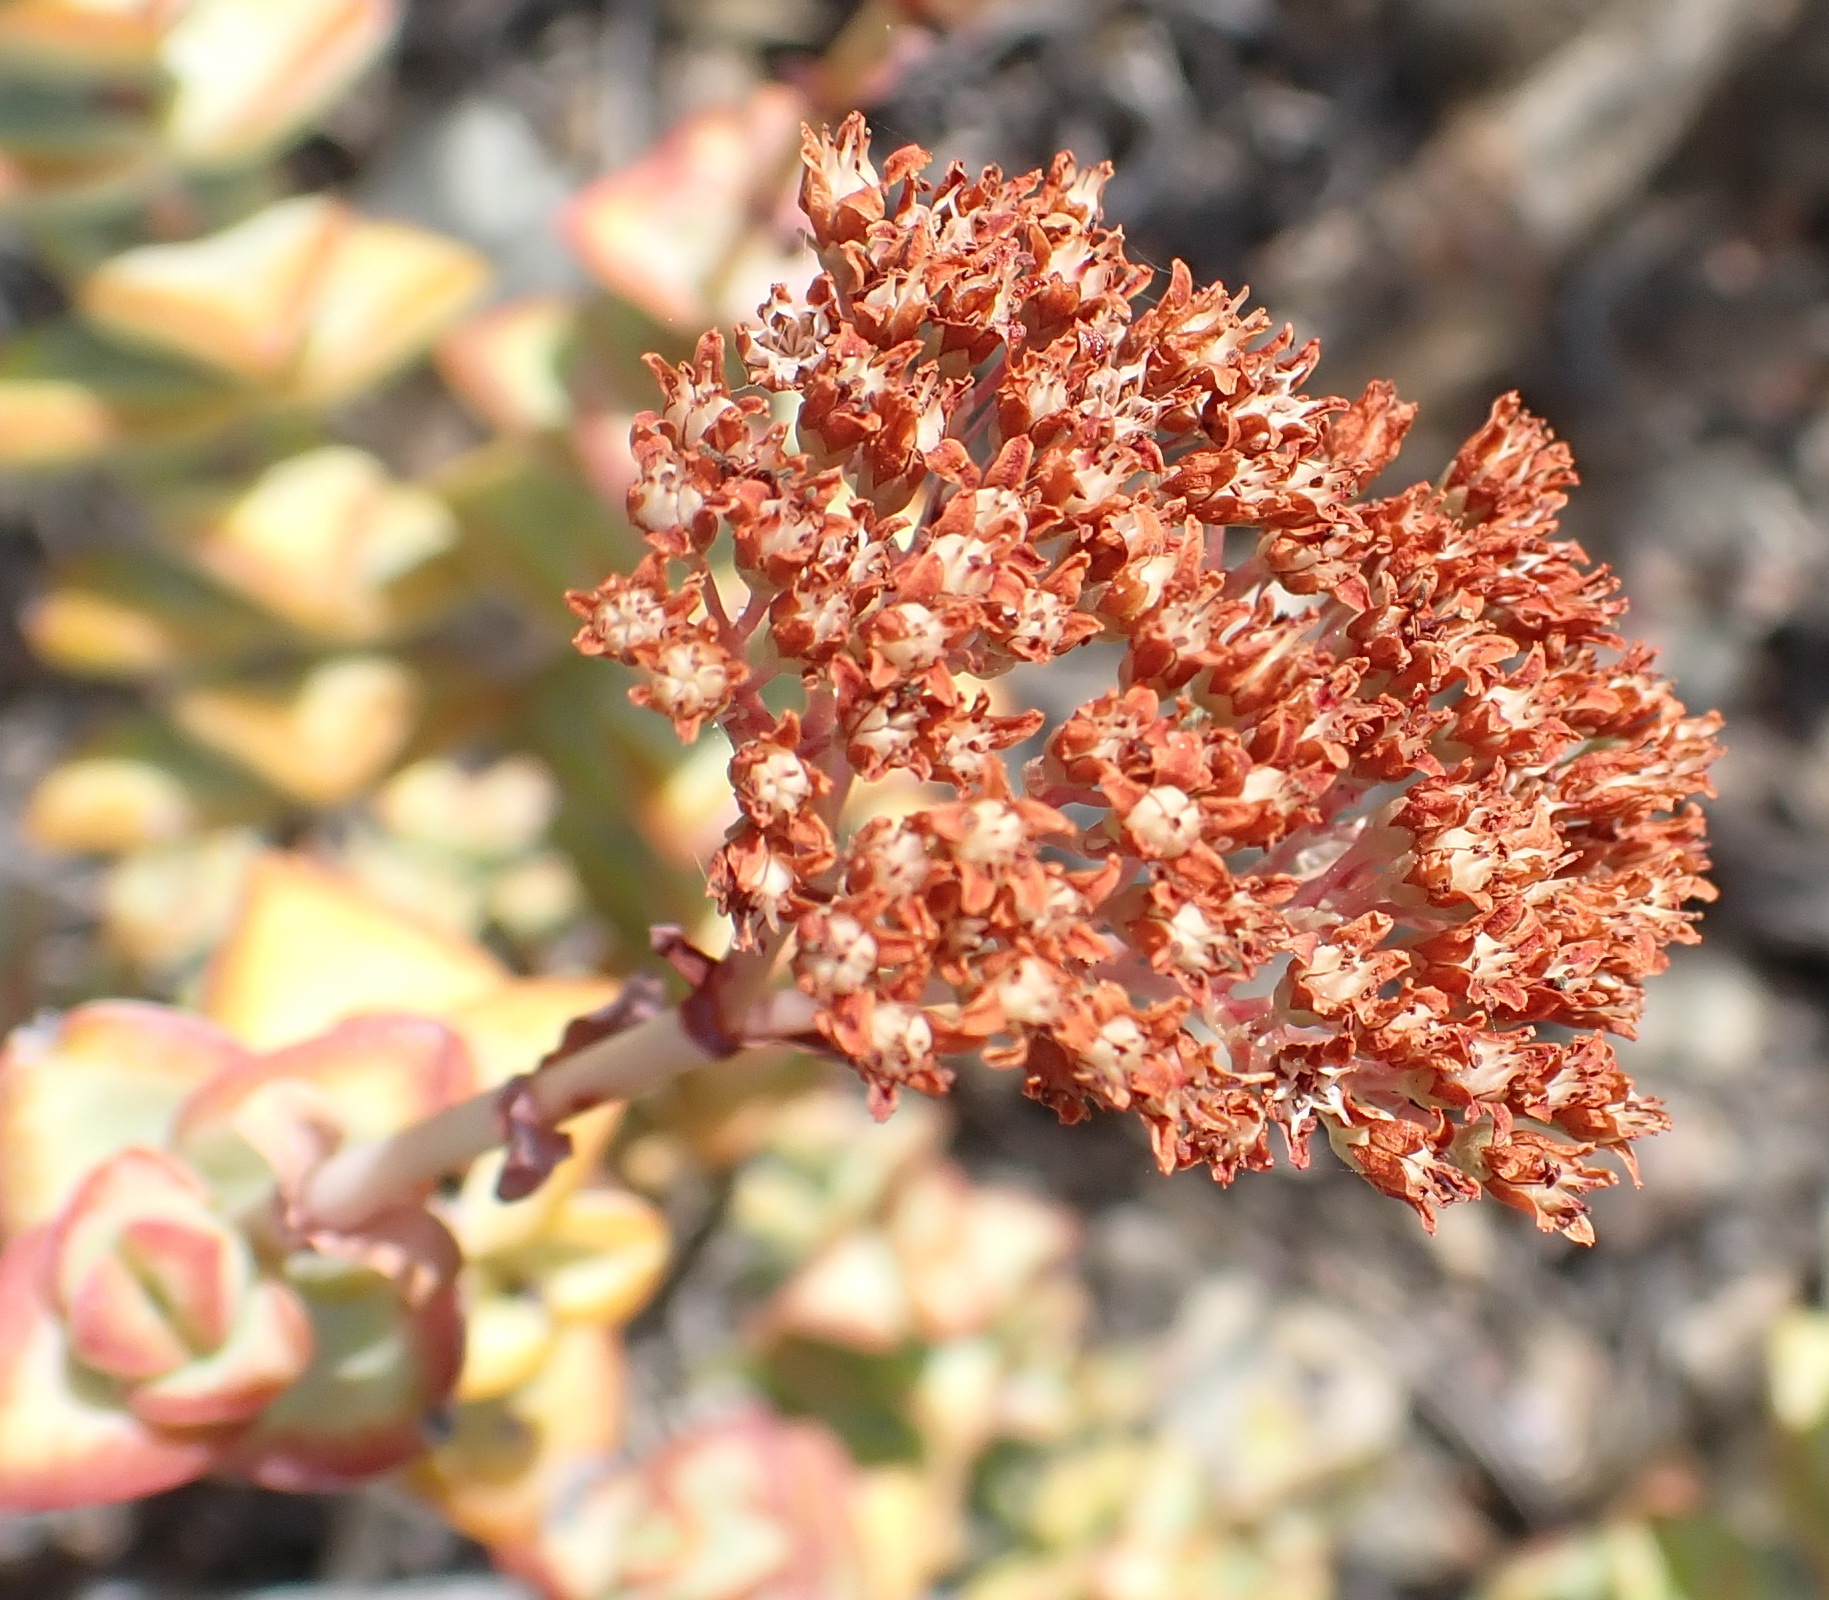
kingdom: Plantae
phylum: Tracheophyta
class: Magnoliopsida
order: Saxifragales
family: Crassulaceae
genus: Crassula
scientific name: Crassula rupestris
